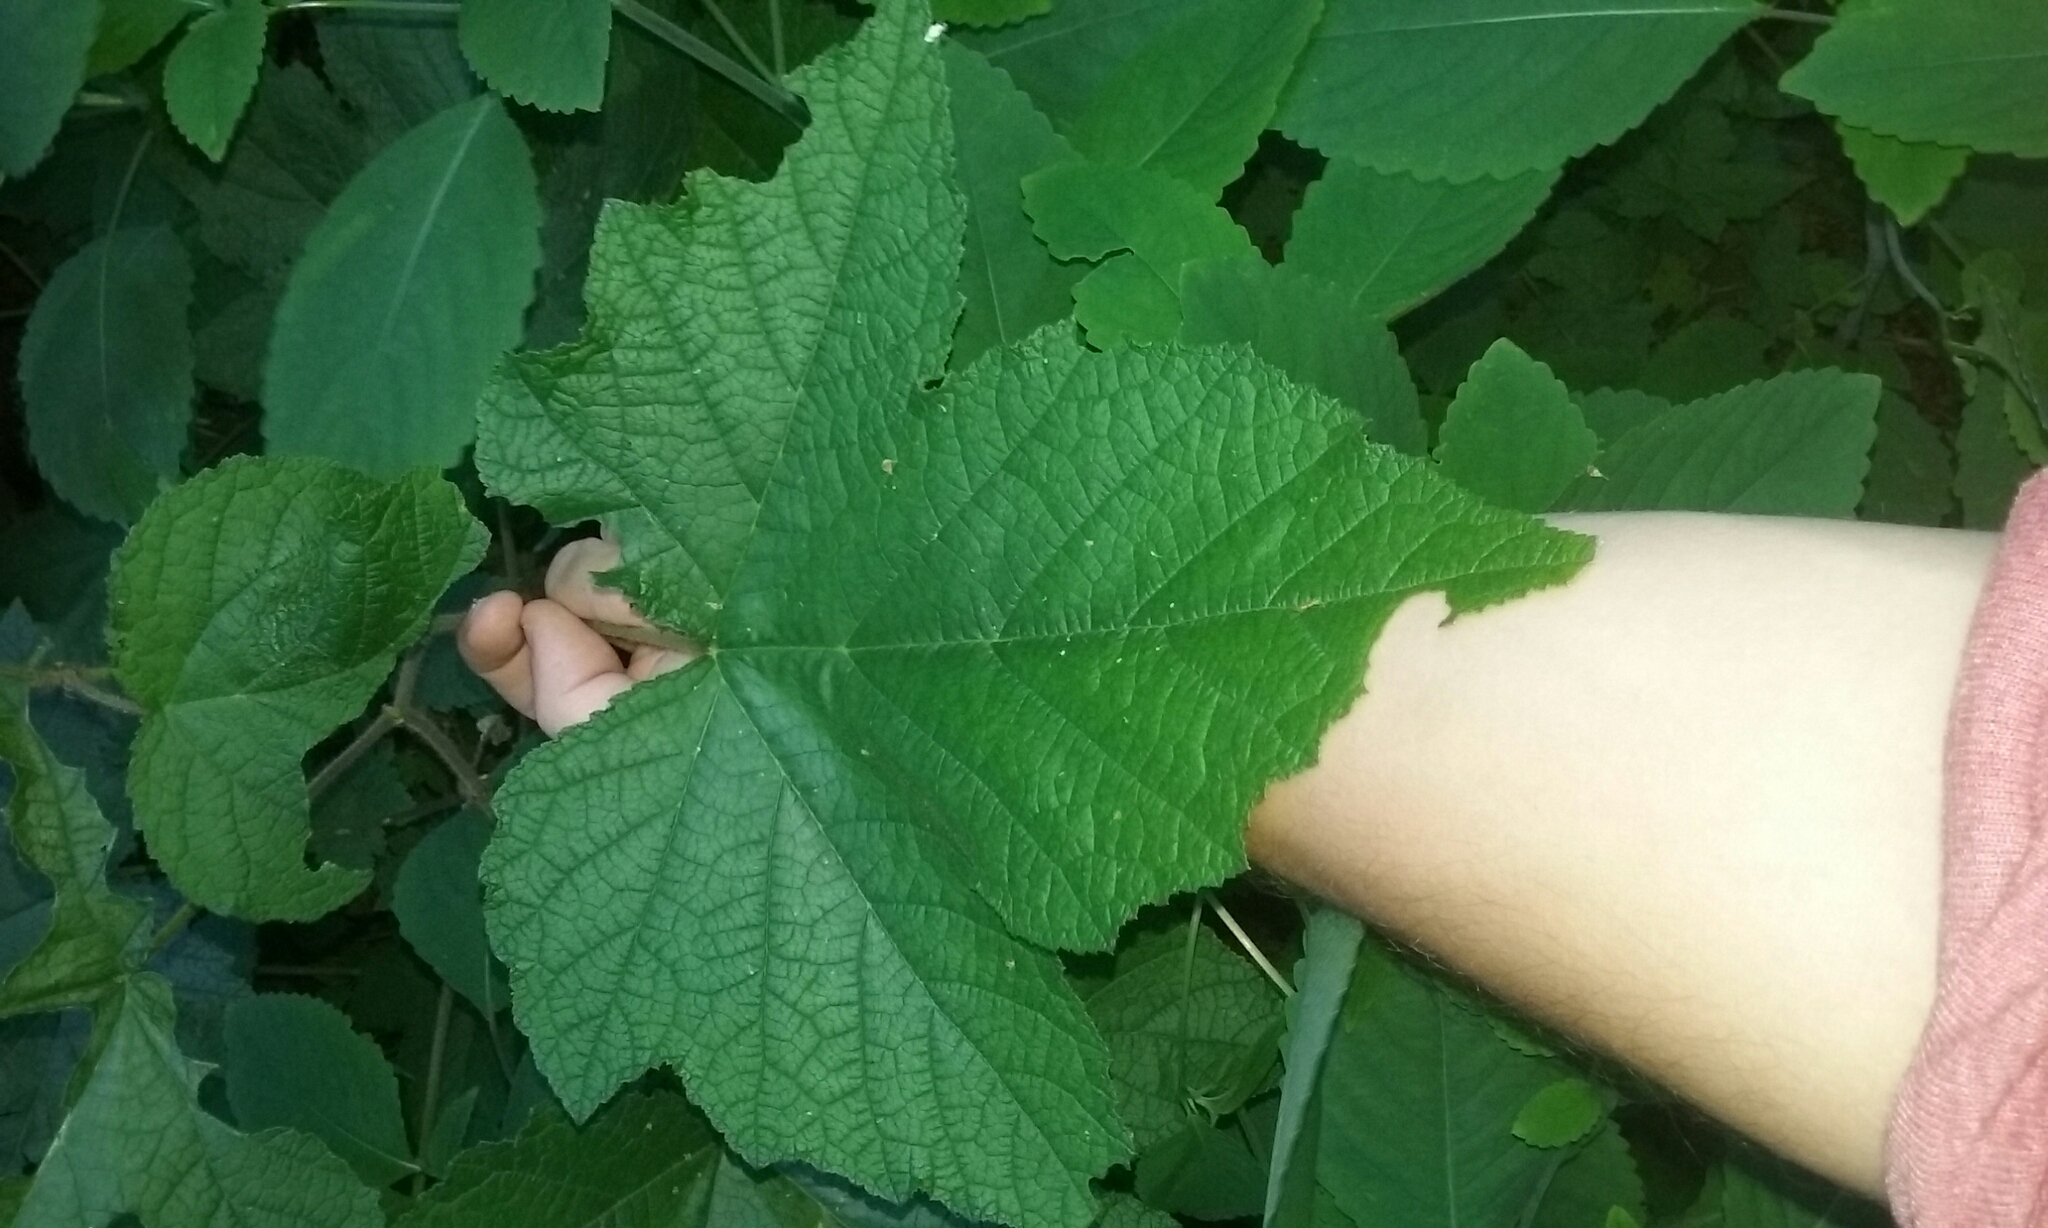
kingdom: Plantae
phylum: Tracheophyta
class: Magnoliopsida
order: Rosales
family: Rosaceae
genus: Rubus
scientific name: Rubus odoratus
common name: Purple-flowered raspberry
